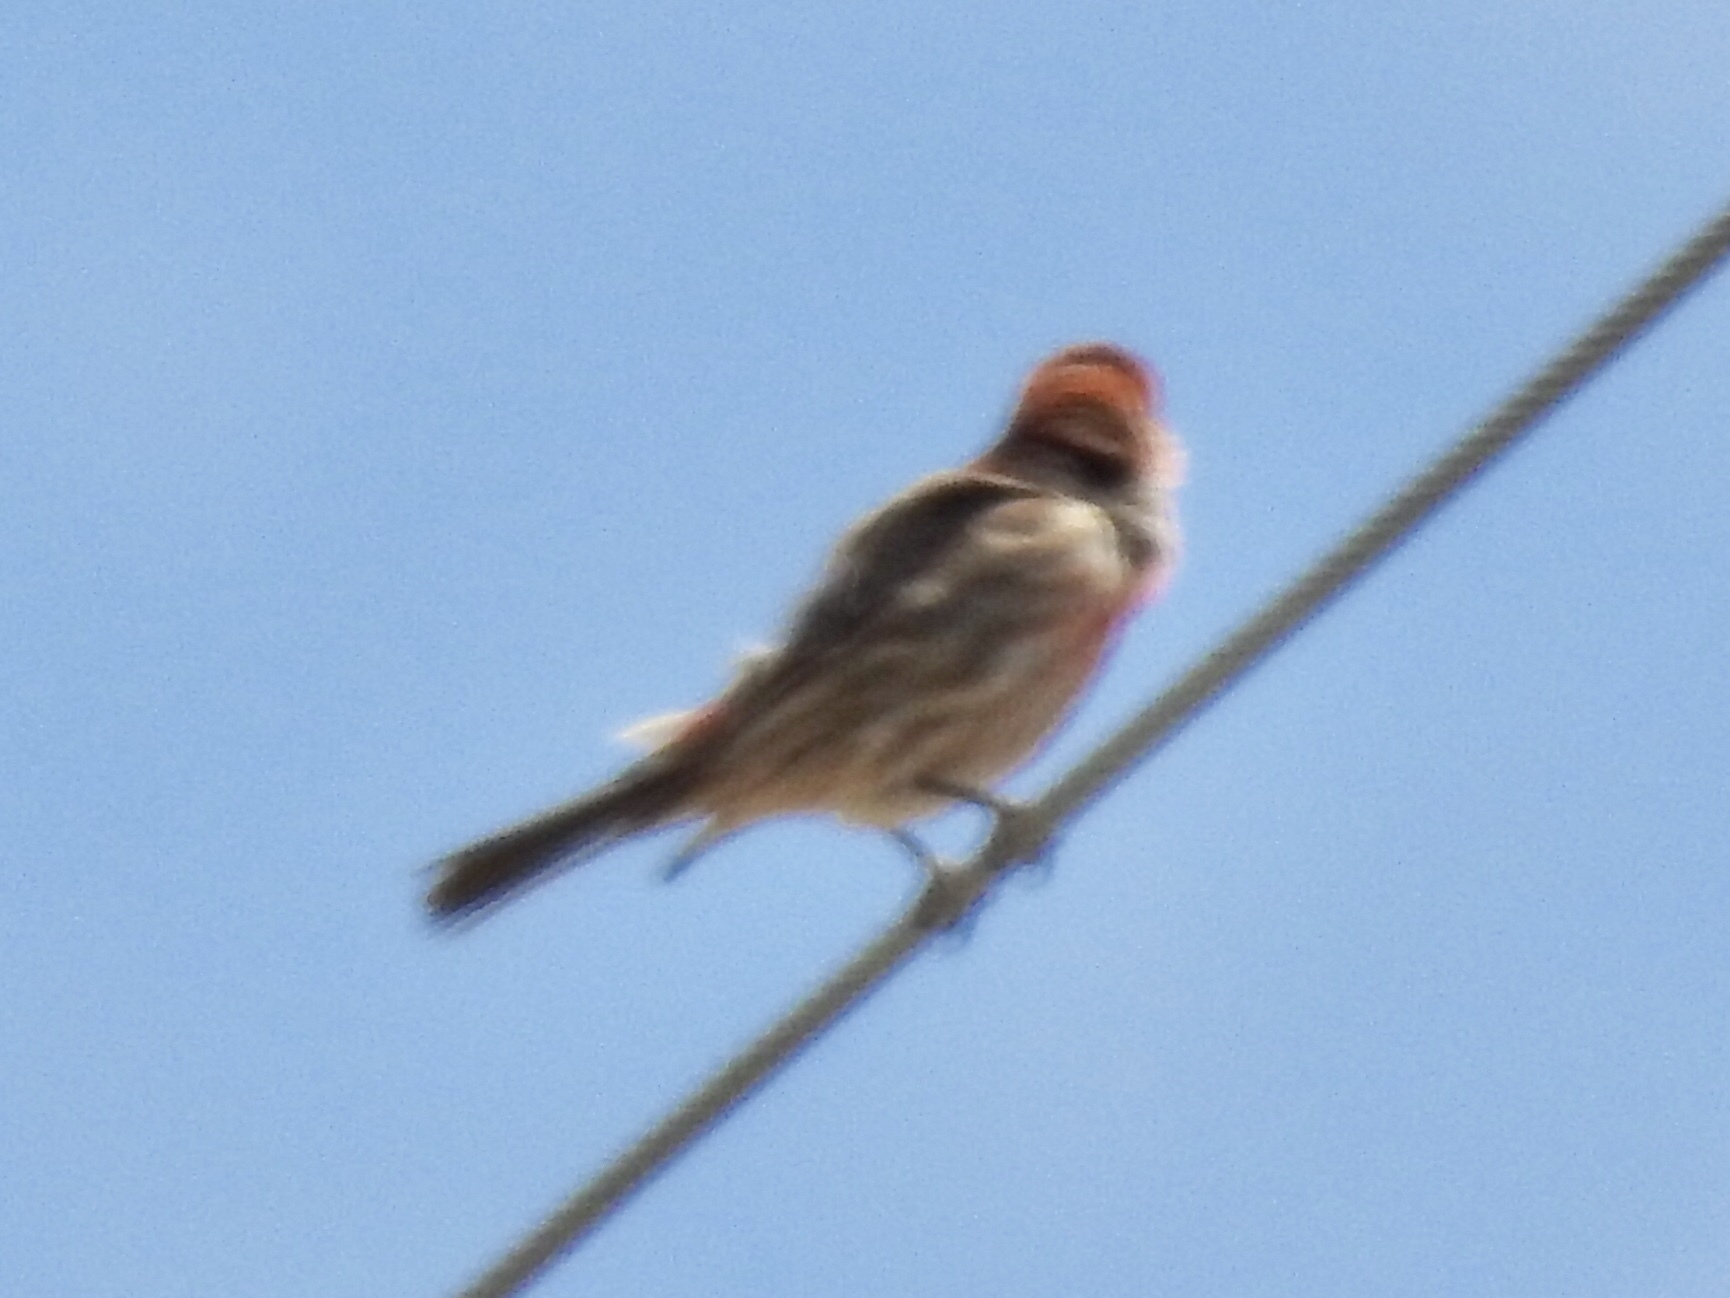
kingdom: Animalia
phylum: Chordata
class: Aves
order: Passeriformes
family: Fringillidae
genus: Haemorhous
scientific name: Haemorhous mexicanus
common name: House finch
